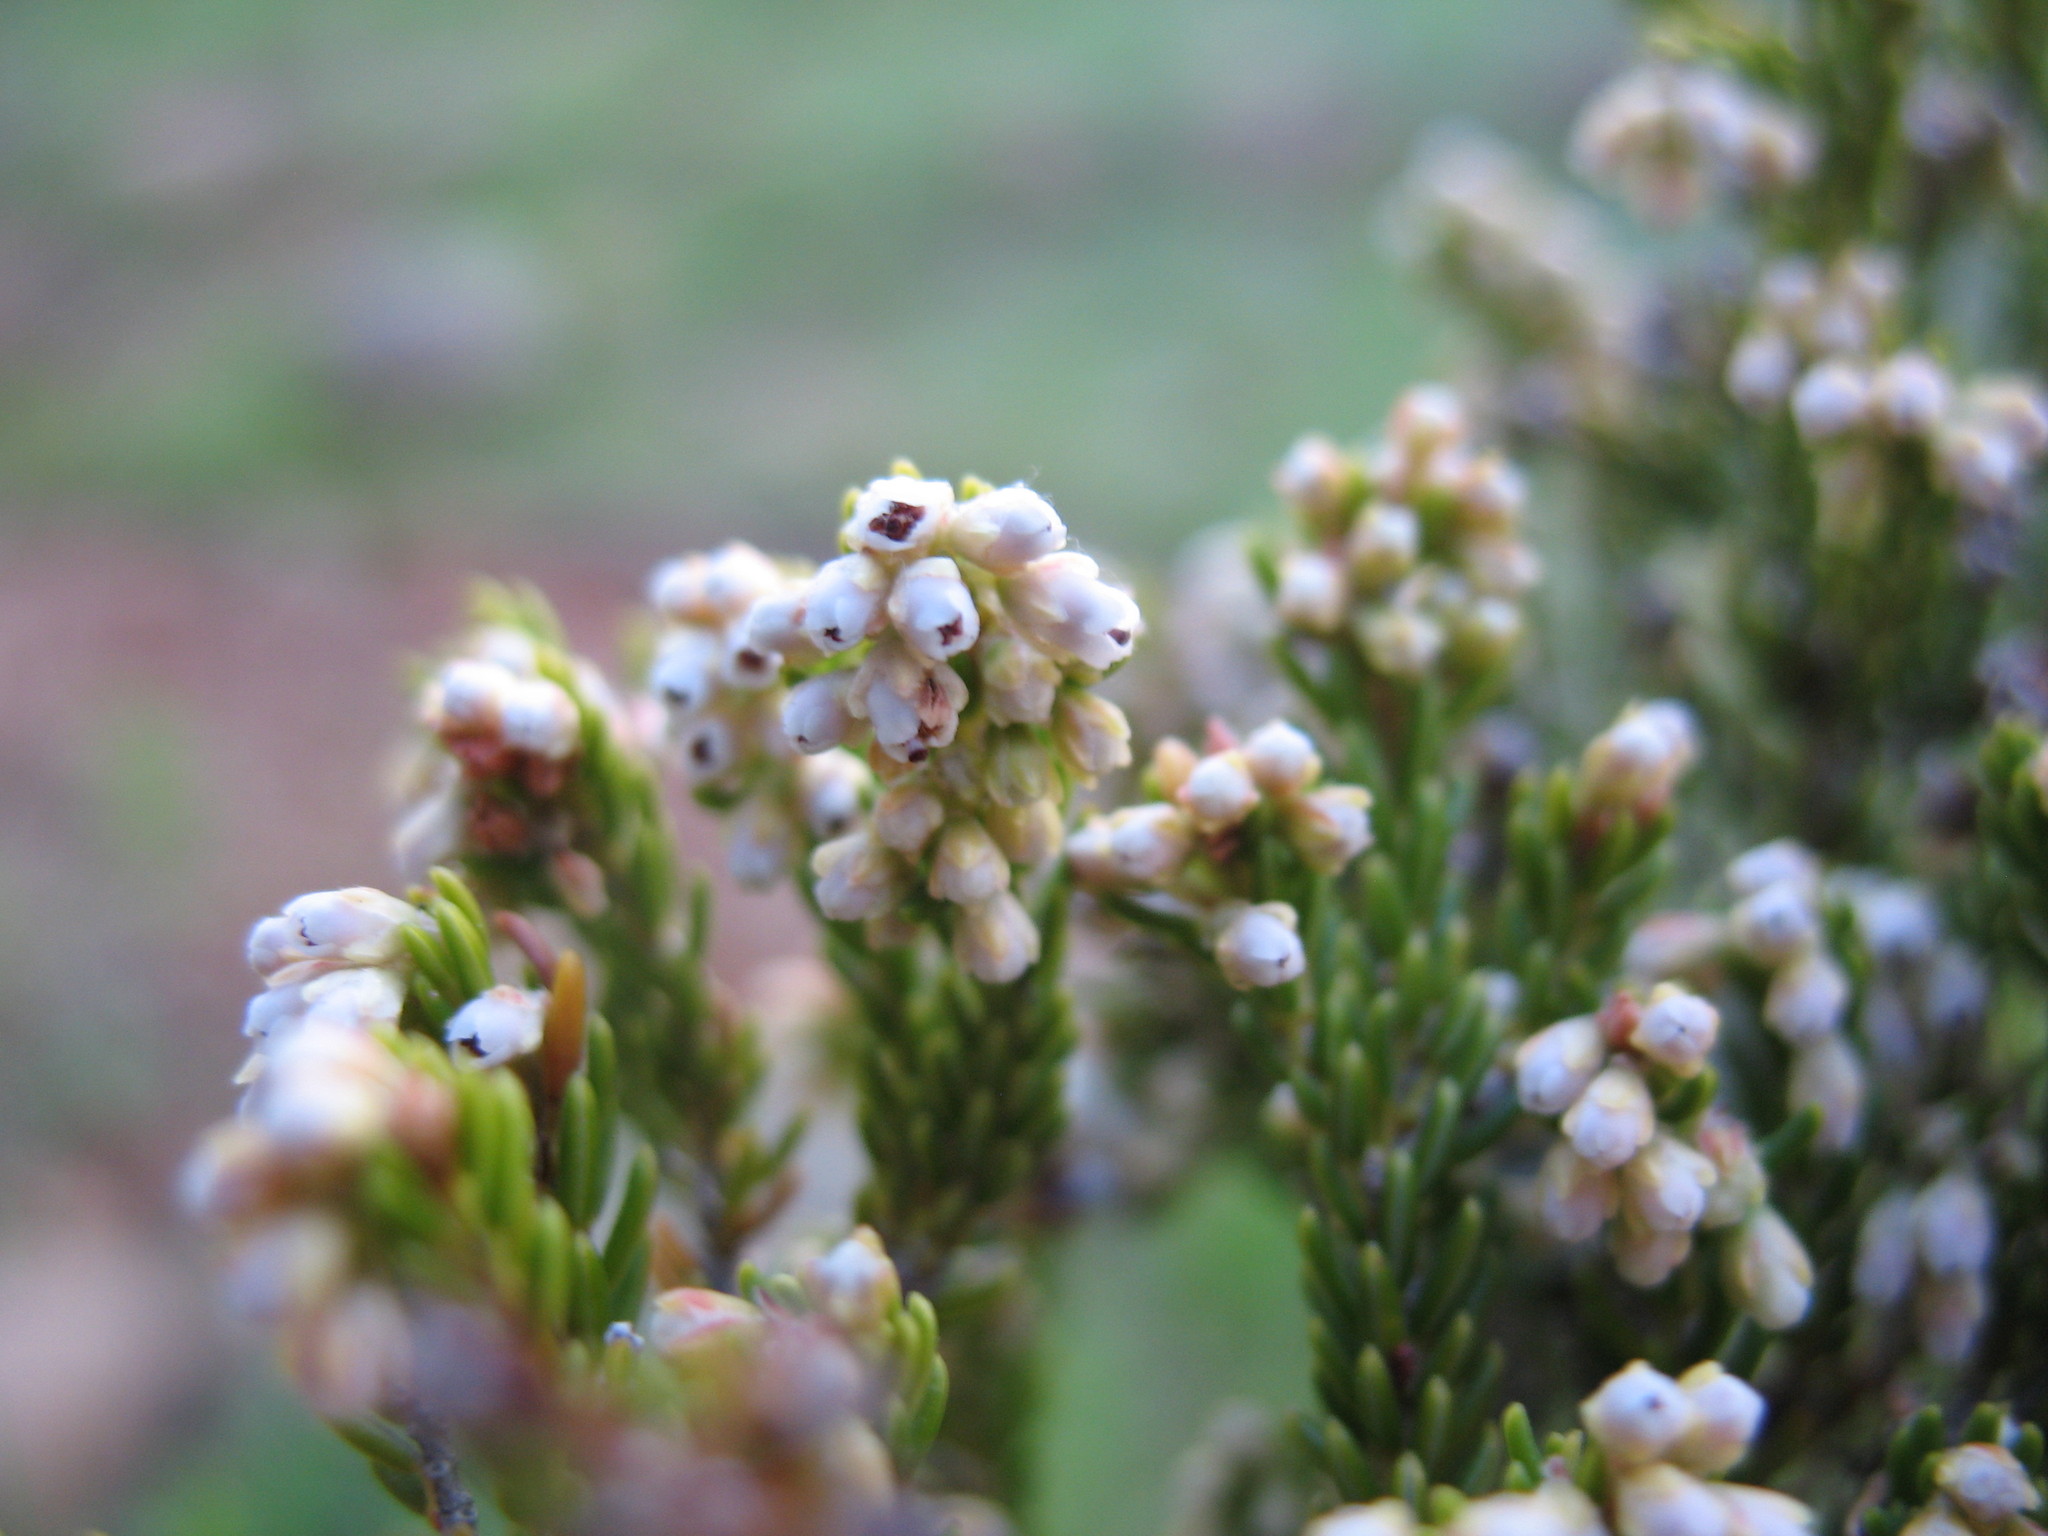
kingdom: Plantae
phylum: Tracheophyta
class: Magnoliopsida
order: Ericales
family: Ericaceae
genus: Erica
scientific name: Erica thodei
